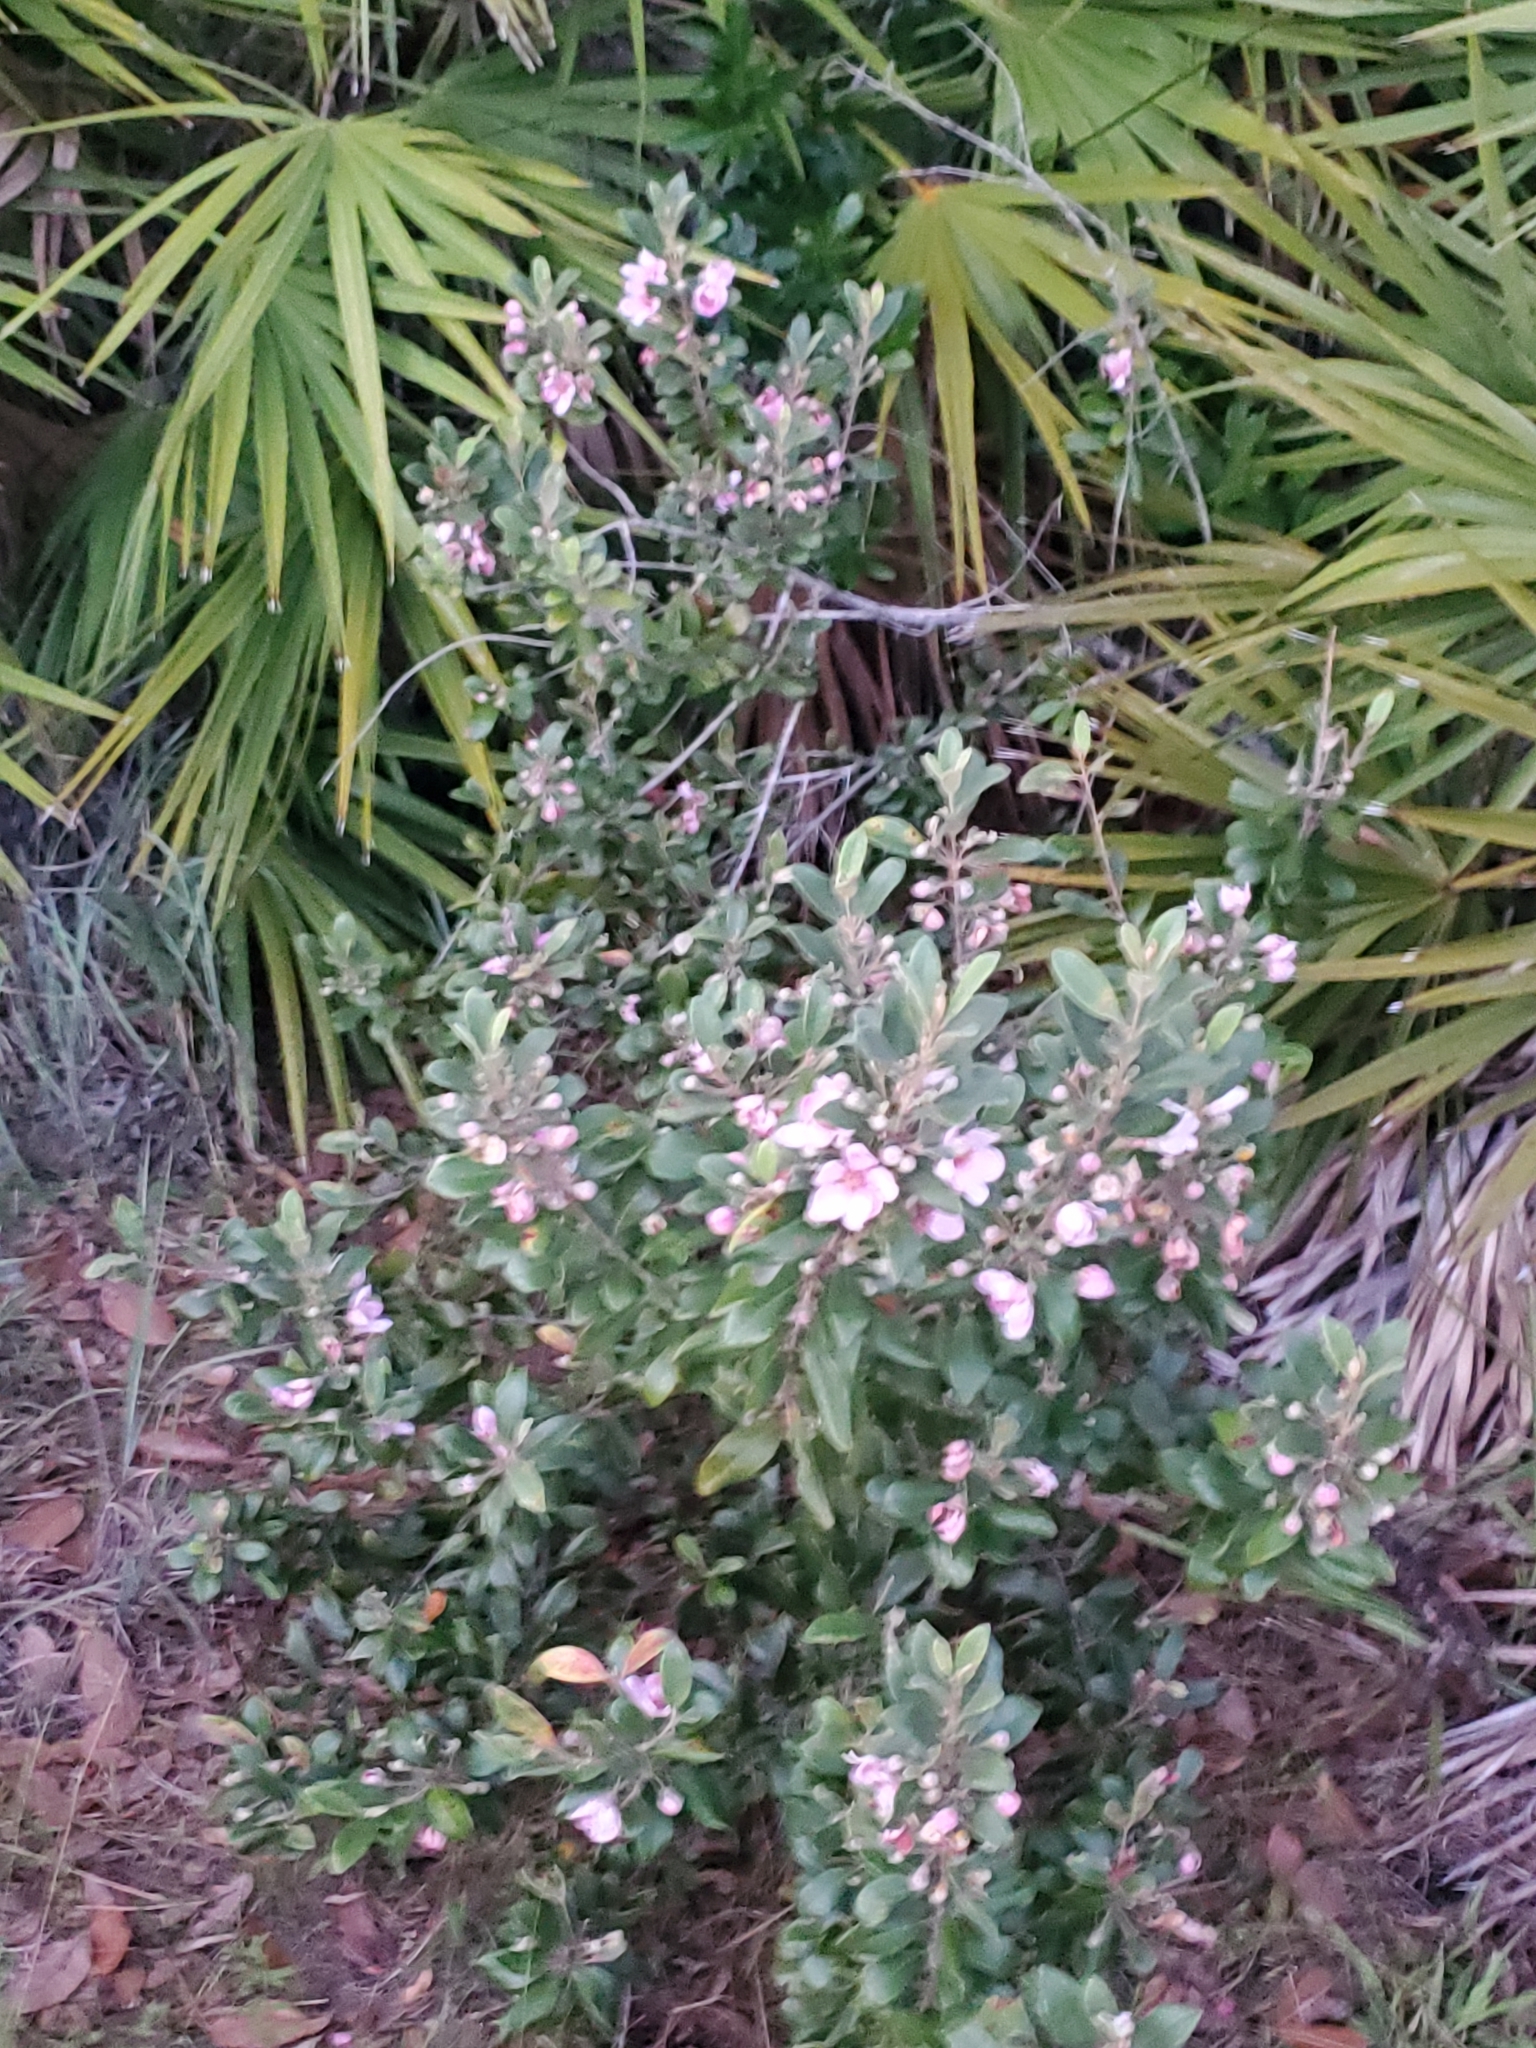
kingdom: Plantae
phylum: Tracheophyta
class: Magnoliopsida
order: Myrtales
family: Myrtaceae
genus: Rhodomyrtus
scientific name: Rhodomyrtus tomentosa
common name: Rose myrtle
